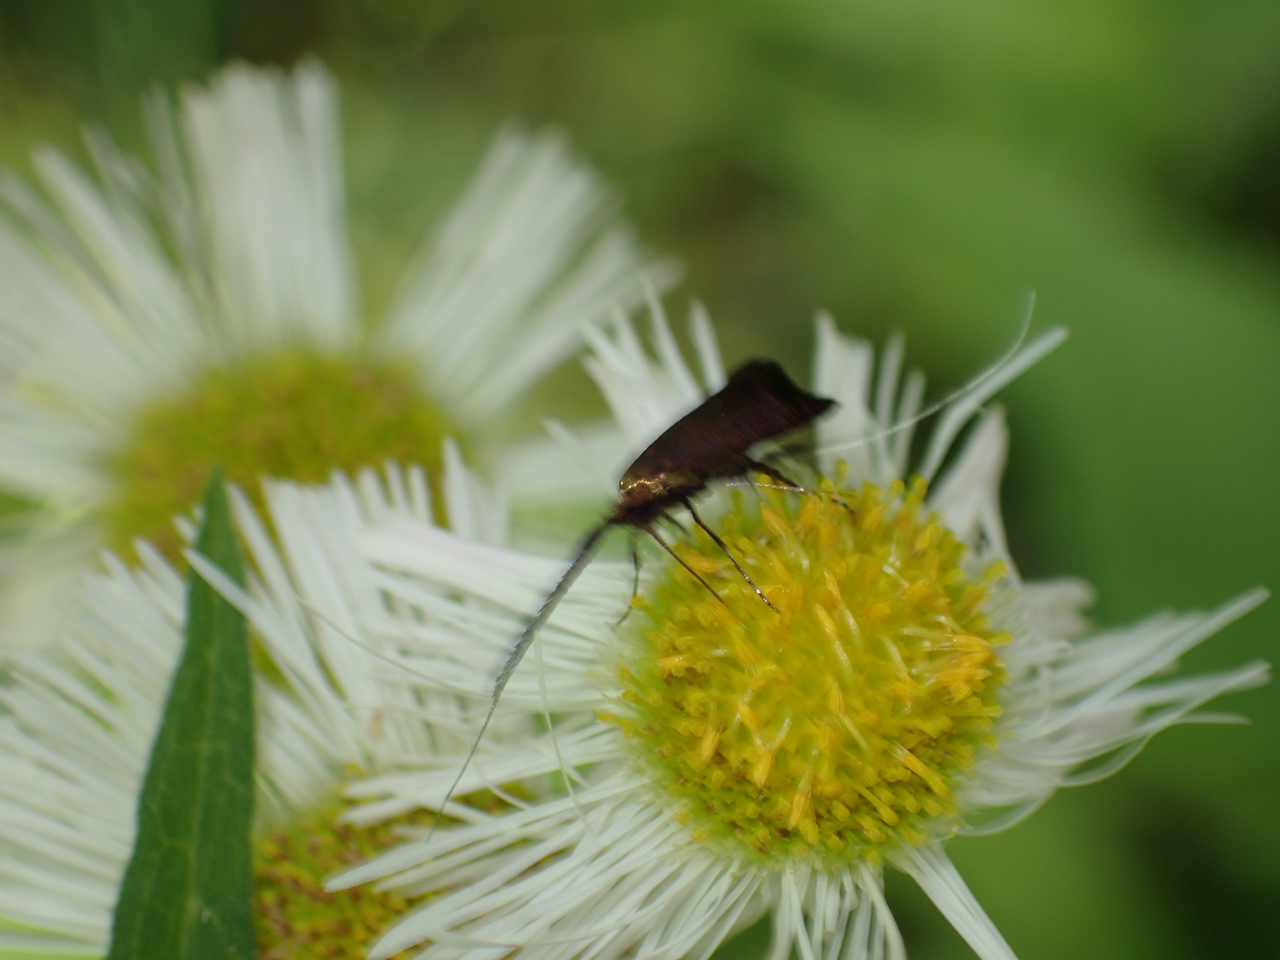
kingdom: Animalia
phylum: Arthropoda
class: Insecta
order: Lepidoptera
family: Adelidae
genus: Adela
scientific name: Adela caeruleella
